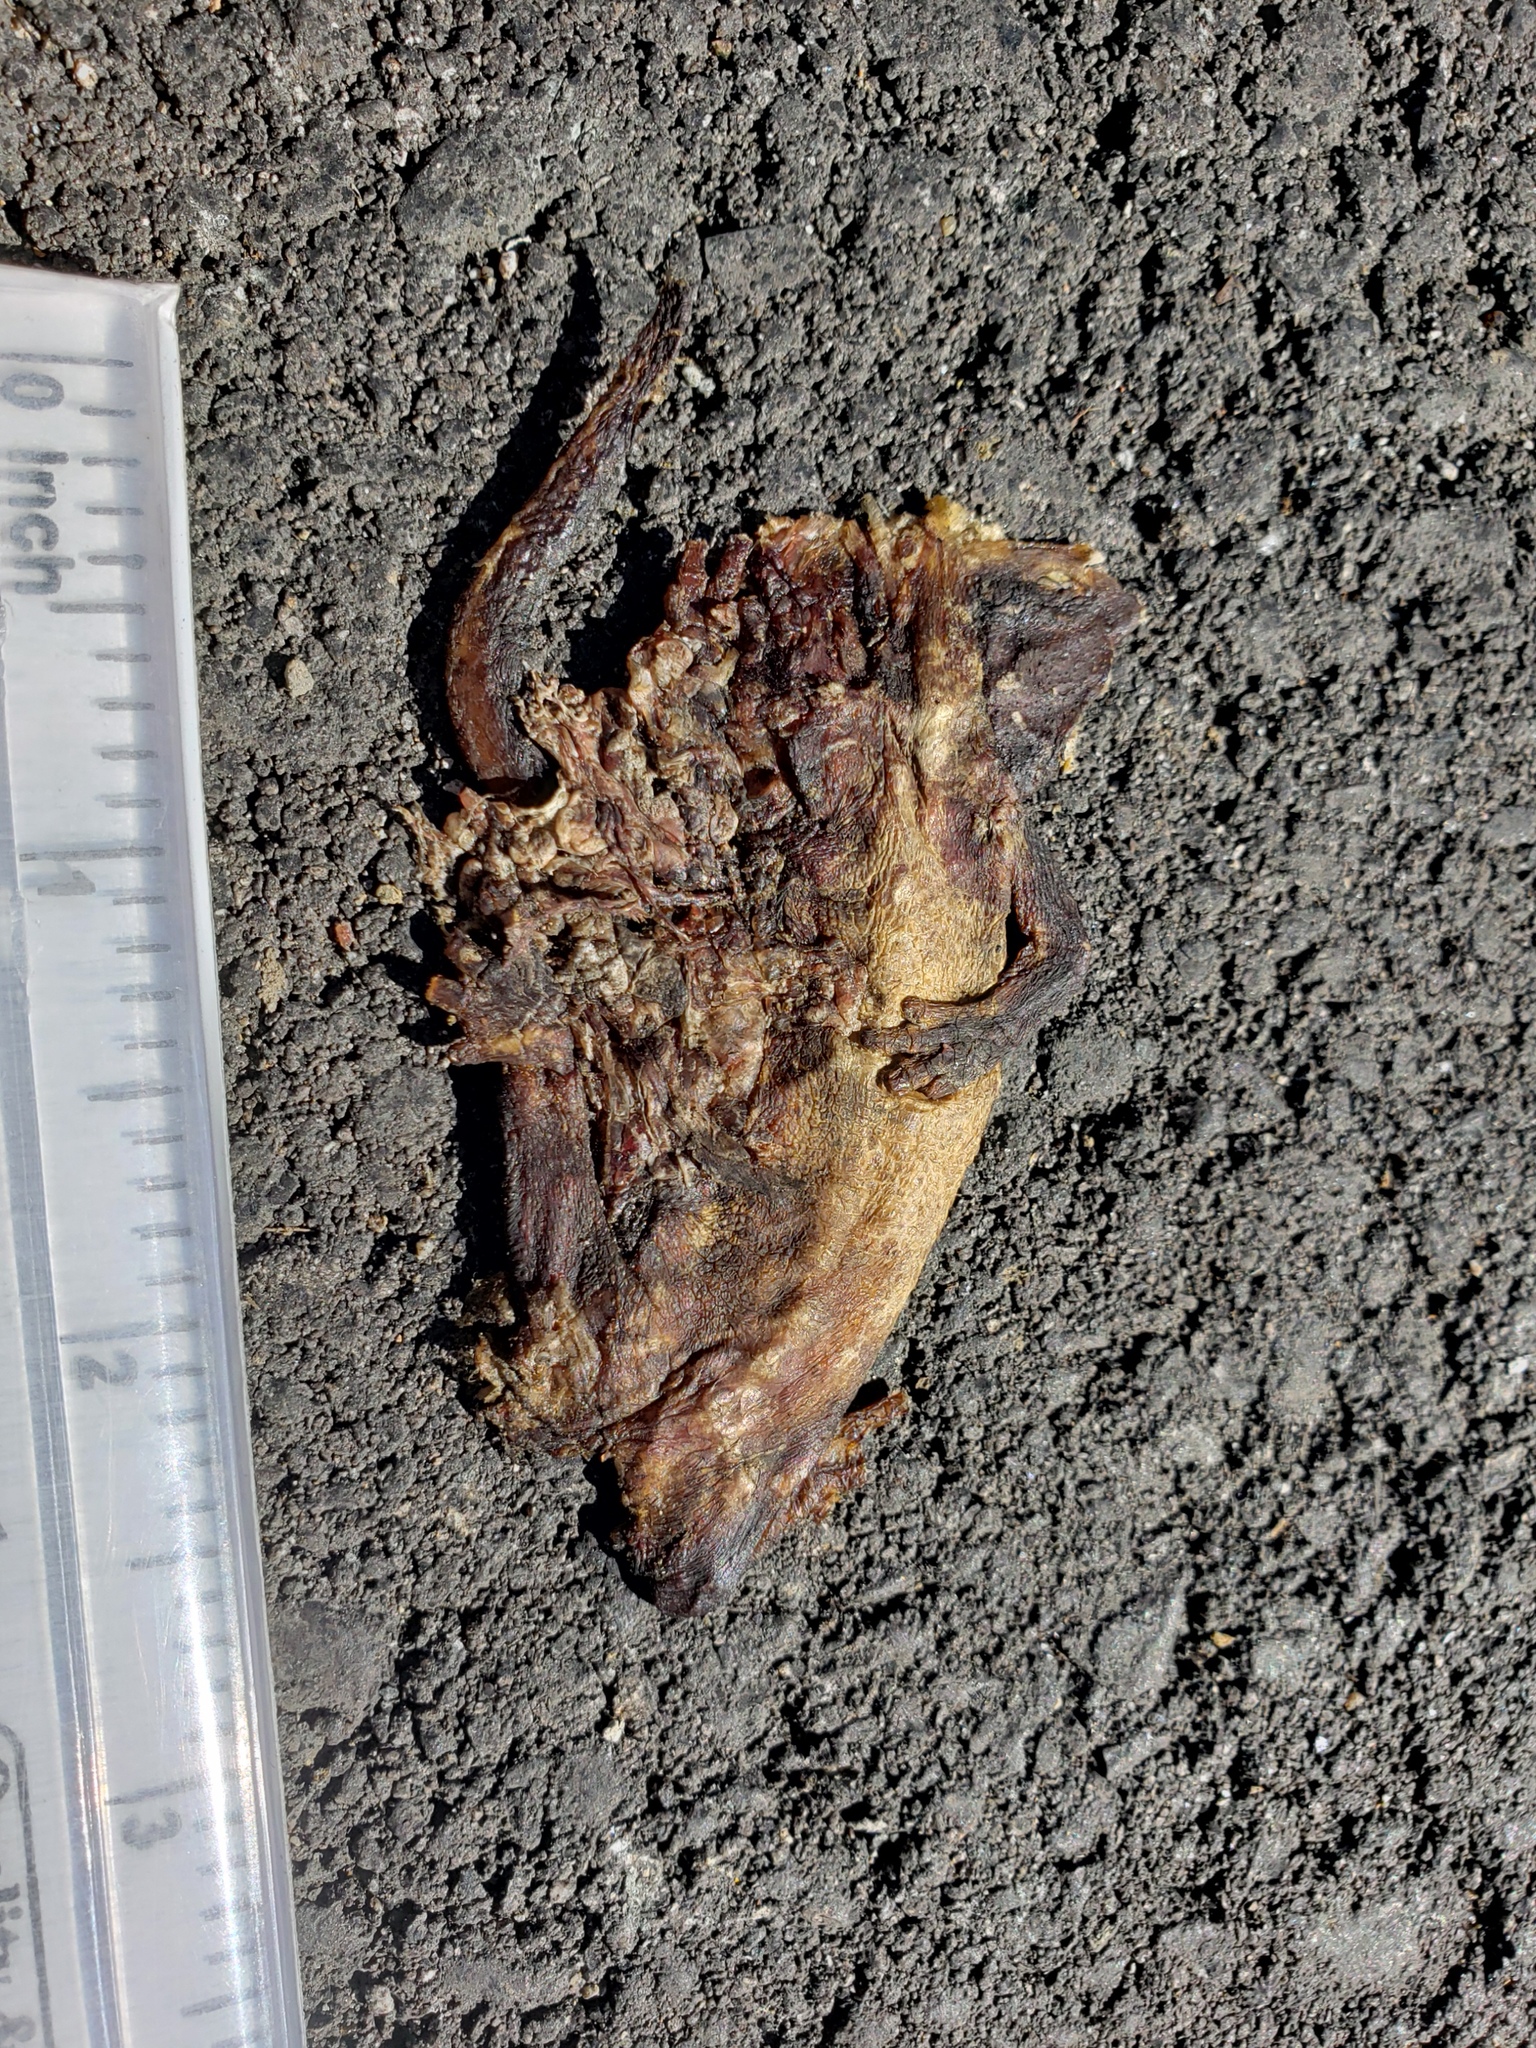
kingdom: Animalia
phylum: Chordata
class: Amphibia
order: Caudata
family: Salamandridae
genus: Taricha
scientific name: Taricha
